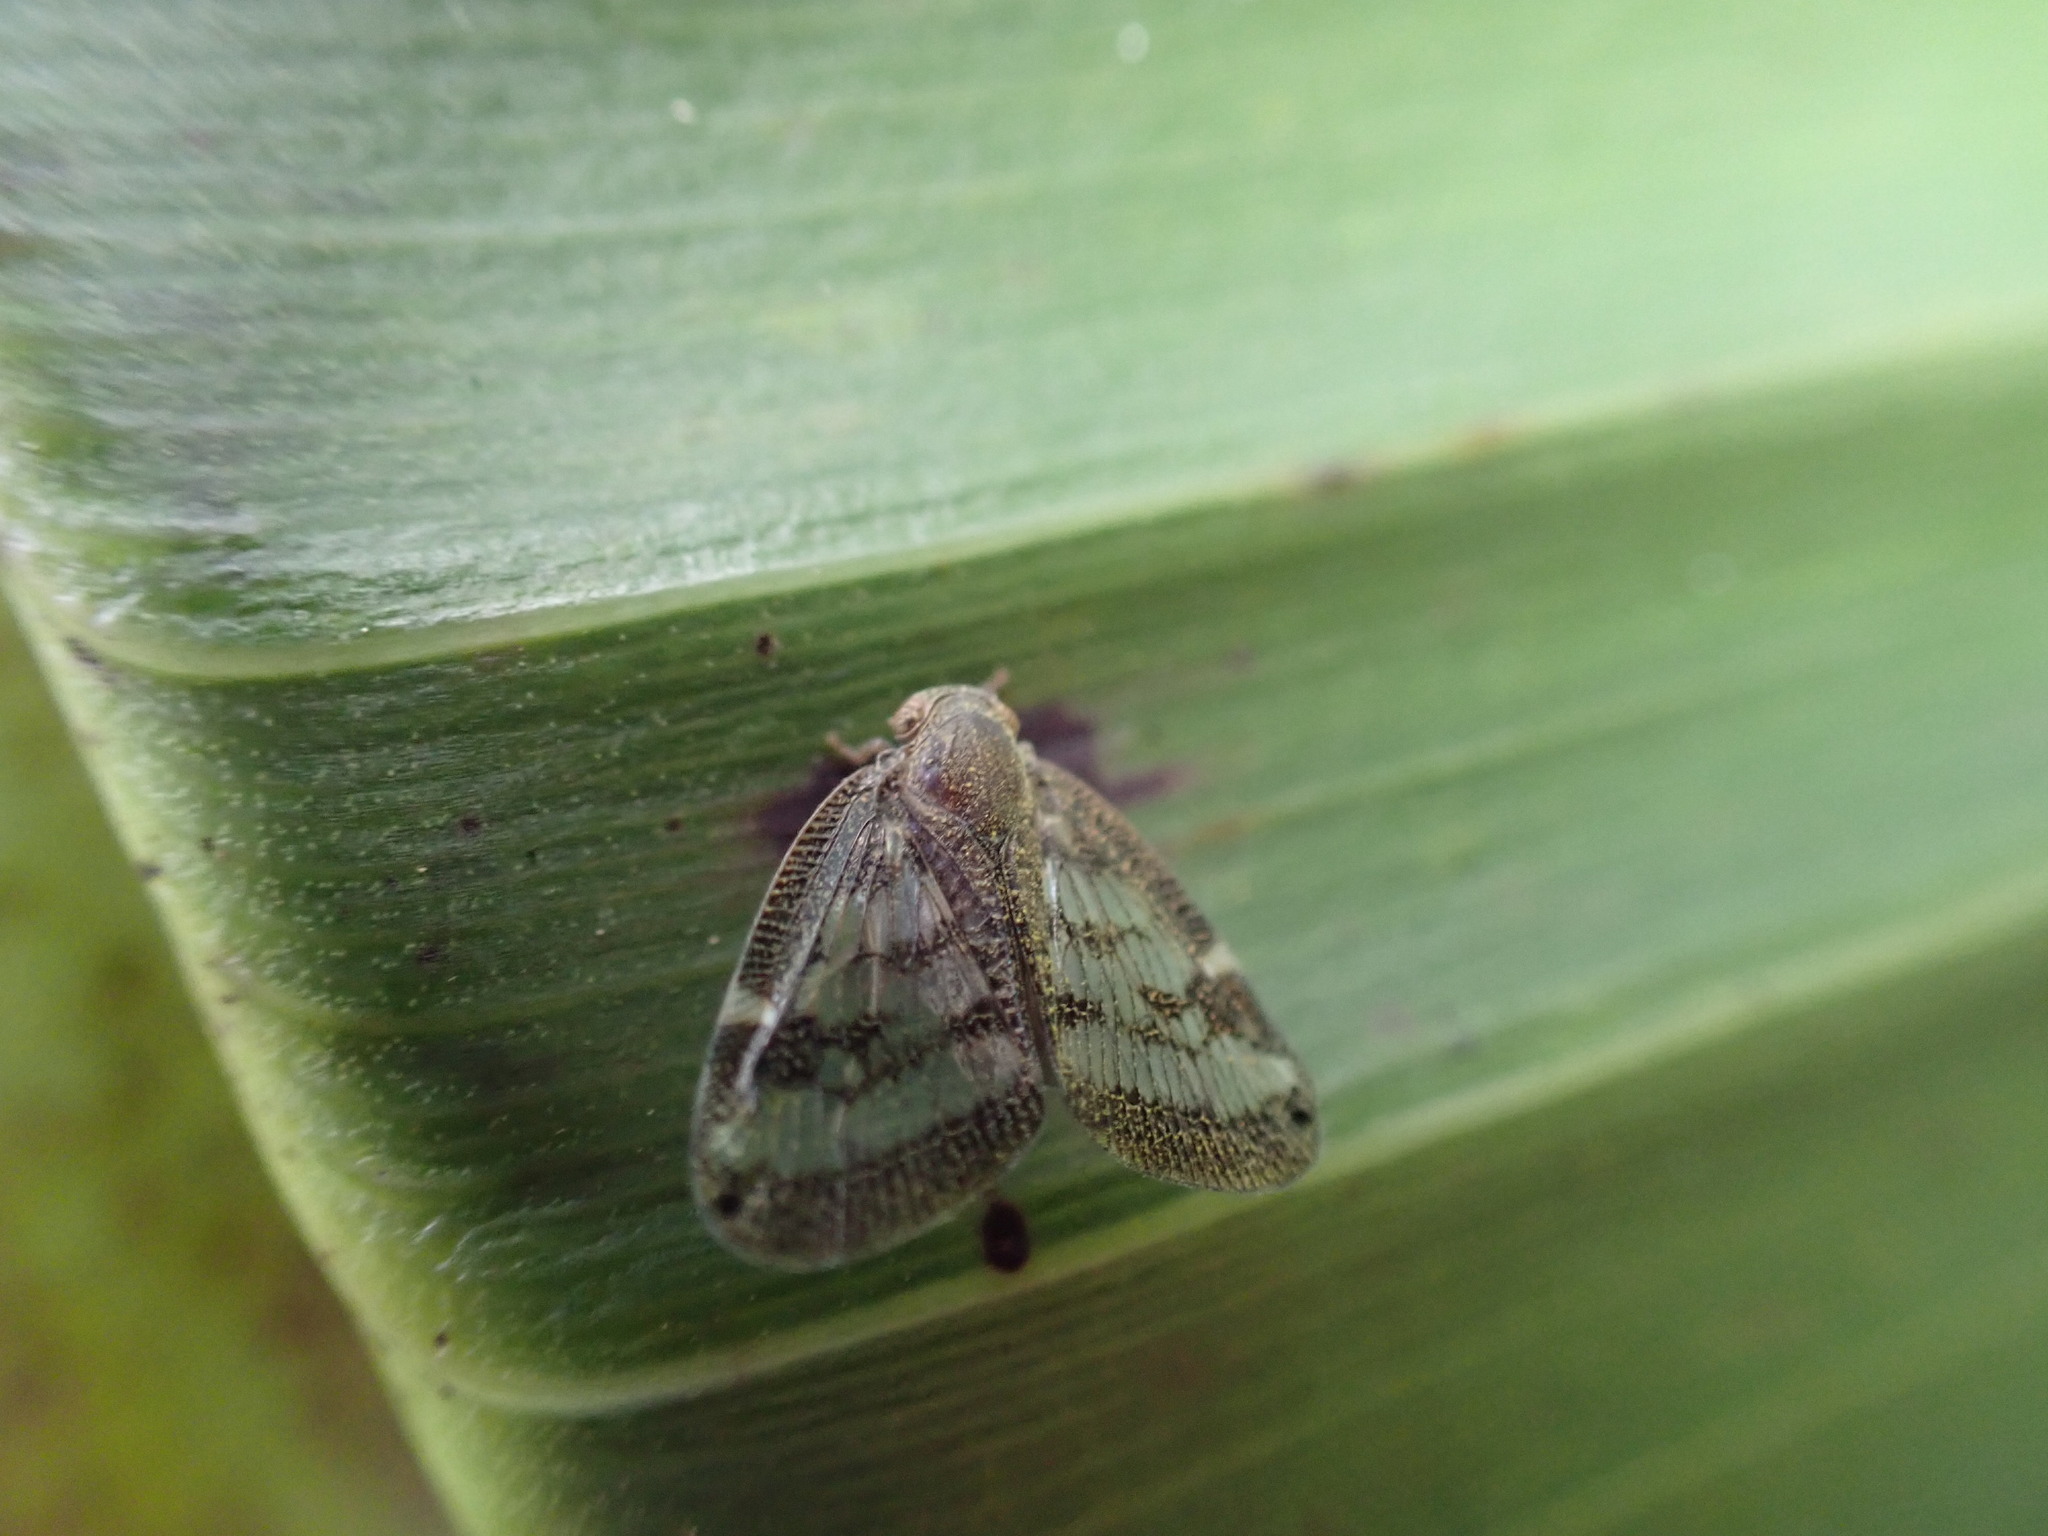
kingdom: Animalia
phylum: Arthropoda
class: Insecta
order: Hemiptera
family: Ricaniidae
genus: Scolypopa
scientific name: Scolypopa australis
